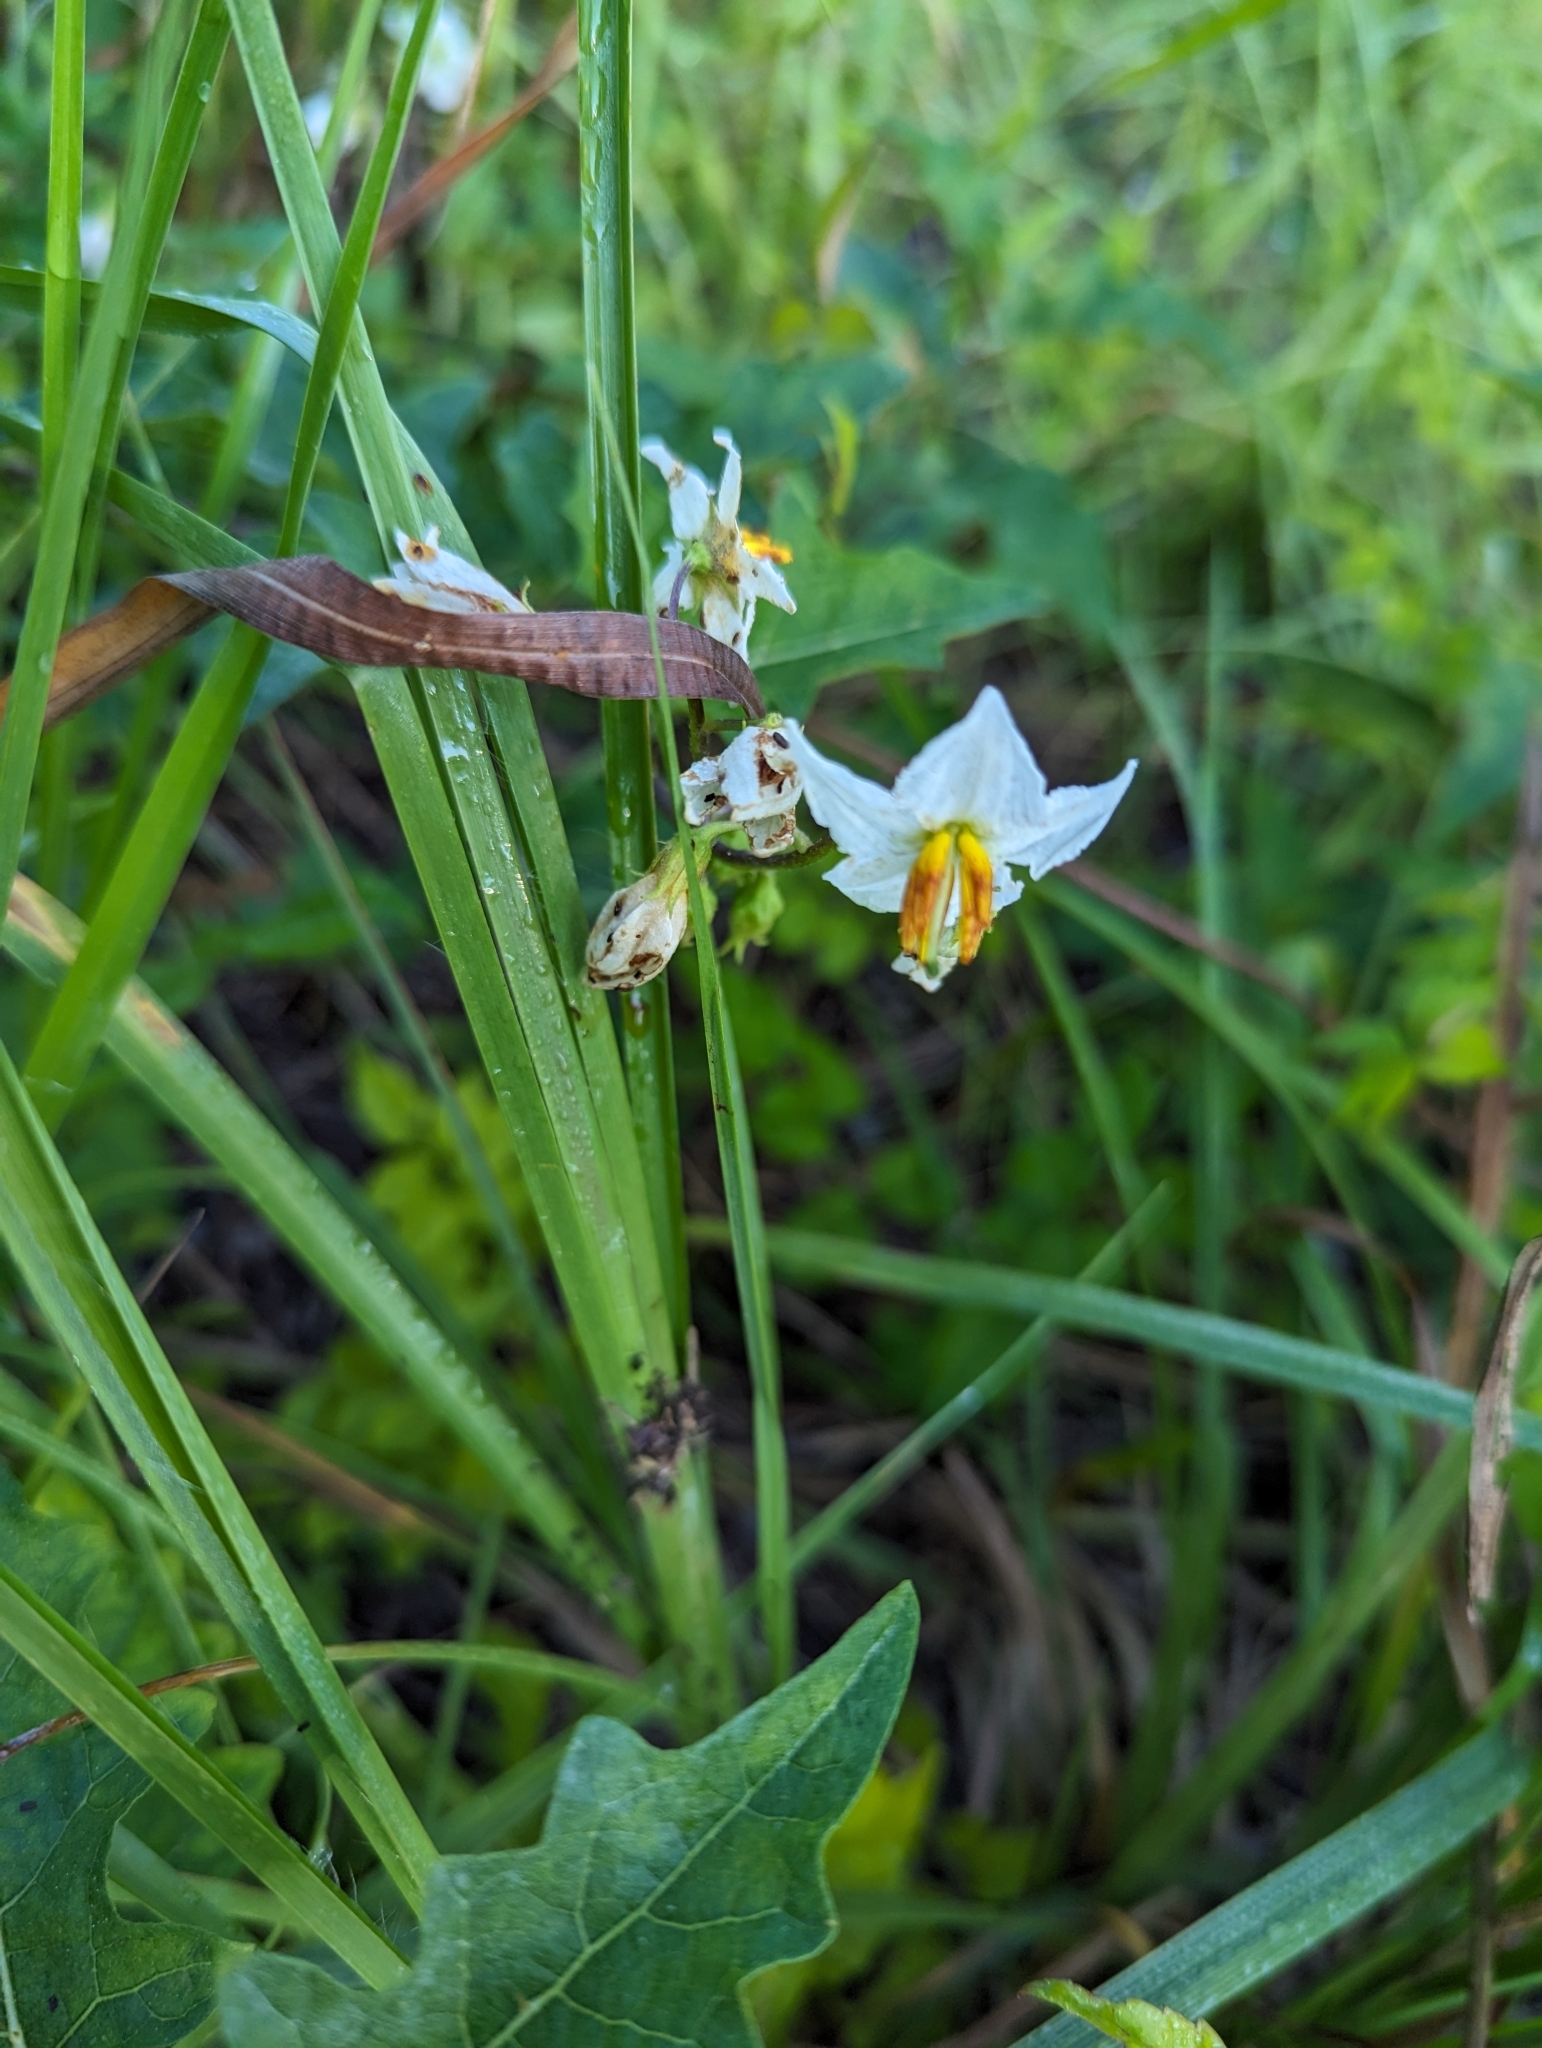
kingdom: Plantae
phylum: Tracheophyta
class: Magnoliopsida
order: Solanales
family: Solanaceae
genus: Solanum
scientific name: Solanum carolinense
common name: Horse-nettle
